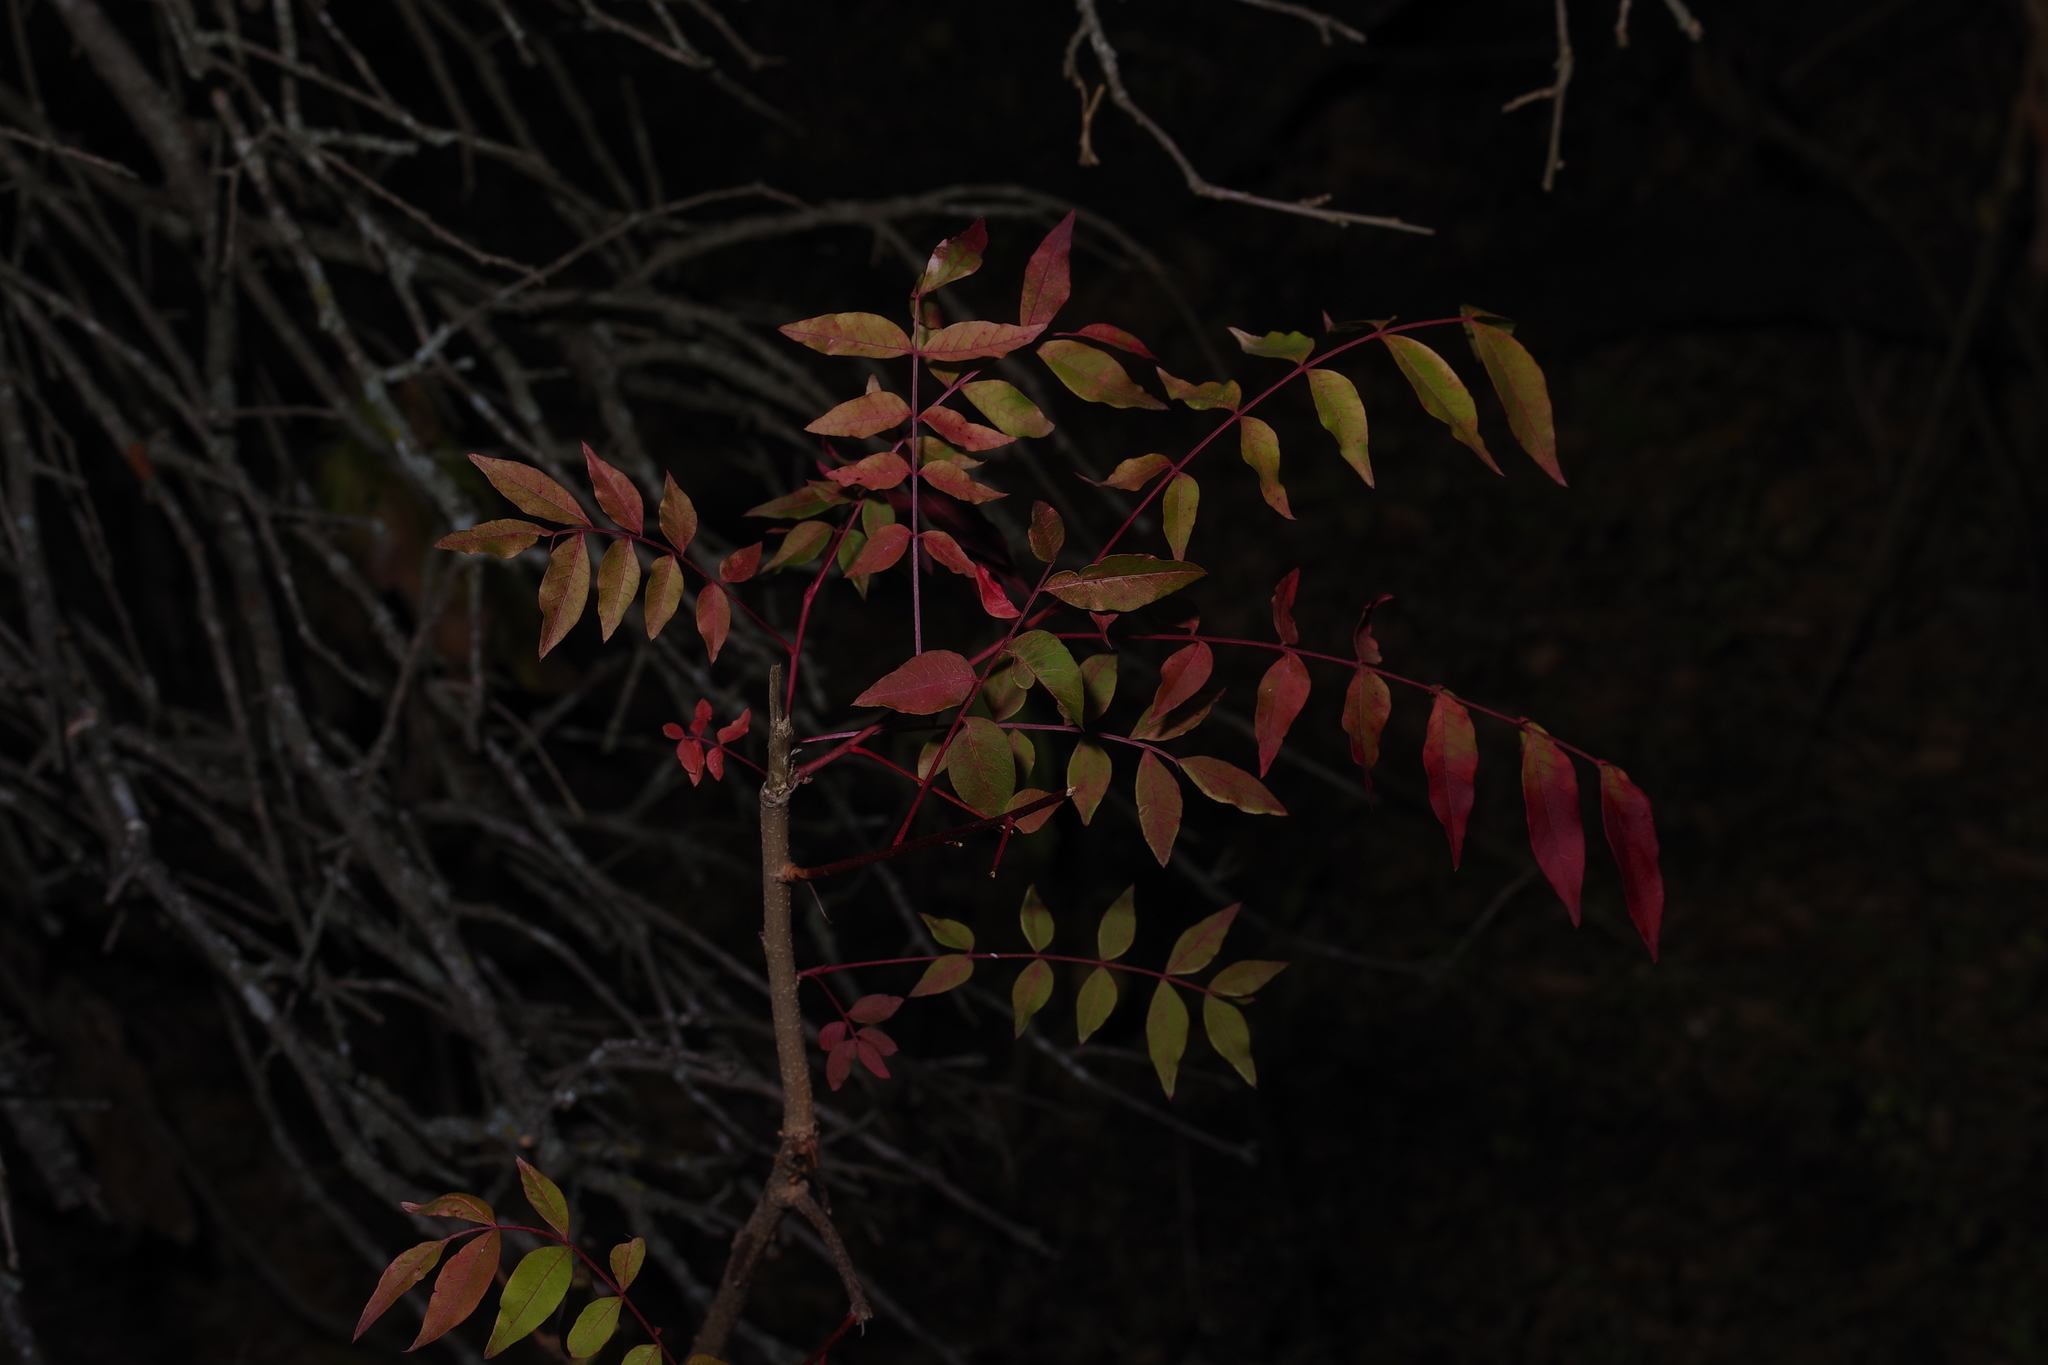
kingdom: Plantae
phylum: Tracheophyta
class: Magnoliopsida
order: Sapindales
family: Anacardiaceae
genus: Pistacia
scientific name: Pistacia chinensis
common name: Chinese pistache
